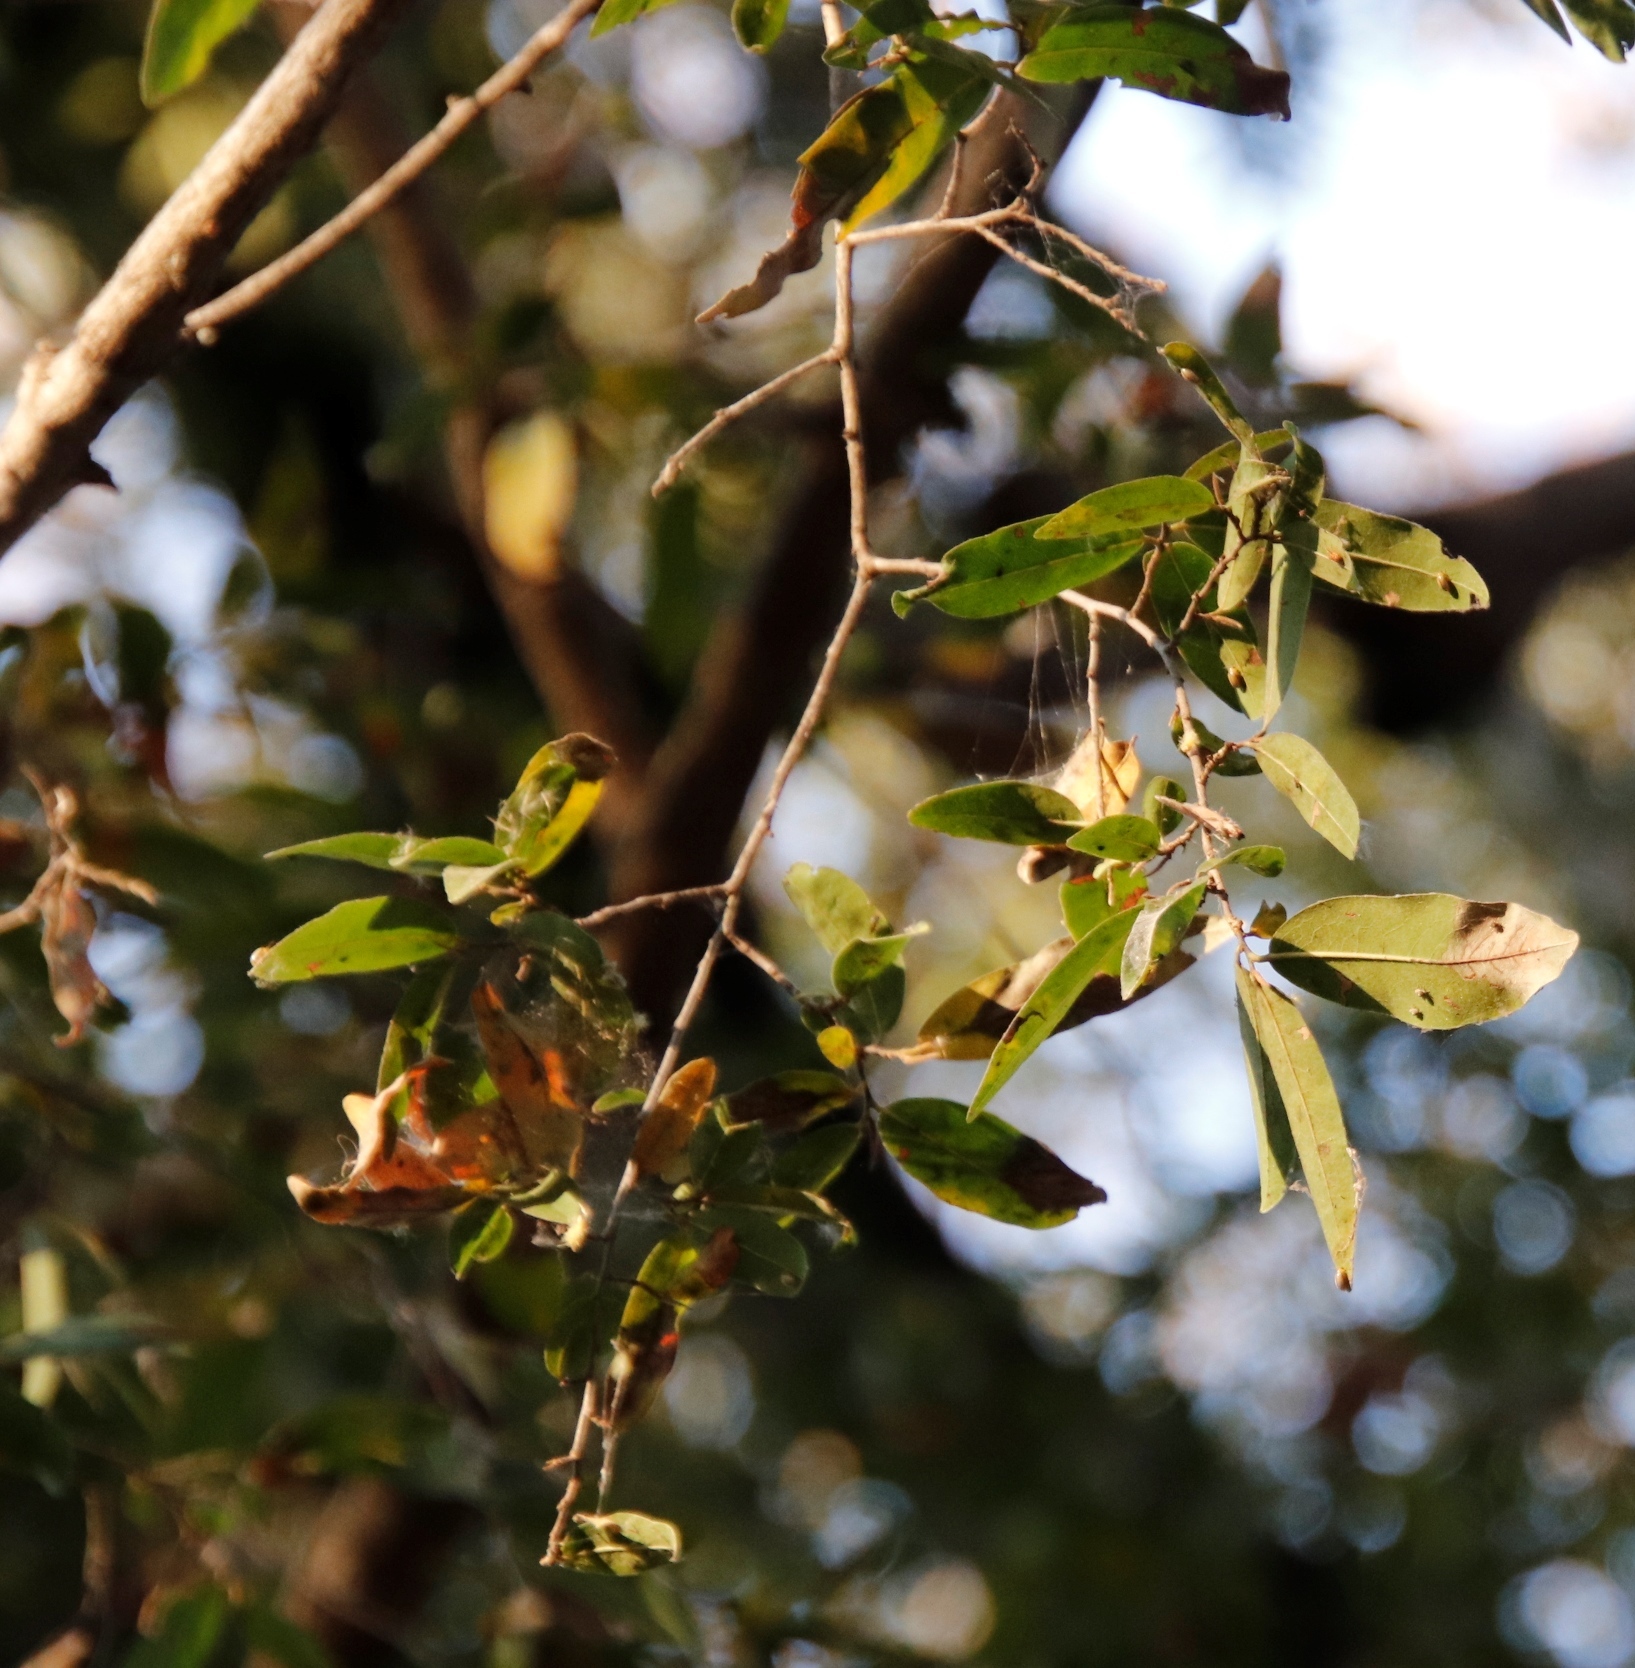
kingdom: Plantae
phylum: Tracheophyta
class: Magnoliopsida
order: Ericales
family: Ebenaceae
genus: Diospyros
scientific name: Diospyros mespiliformis
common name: Ebony diospyros
